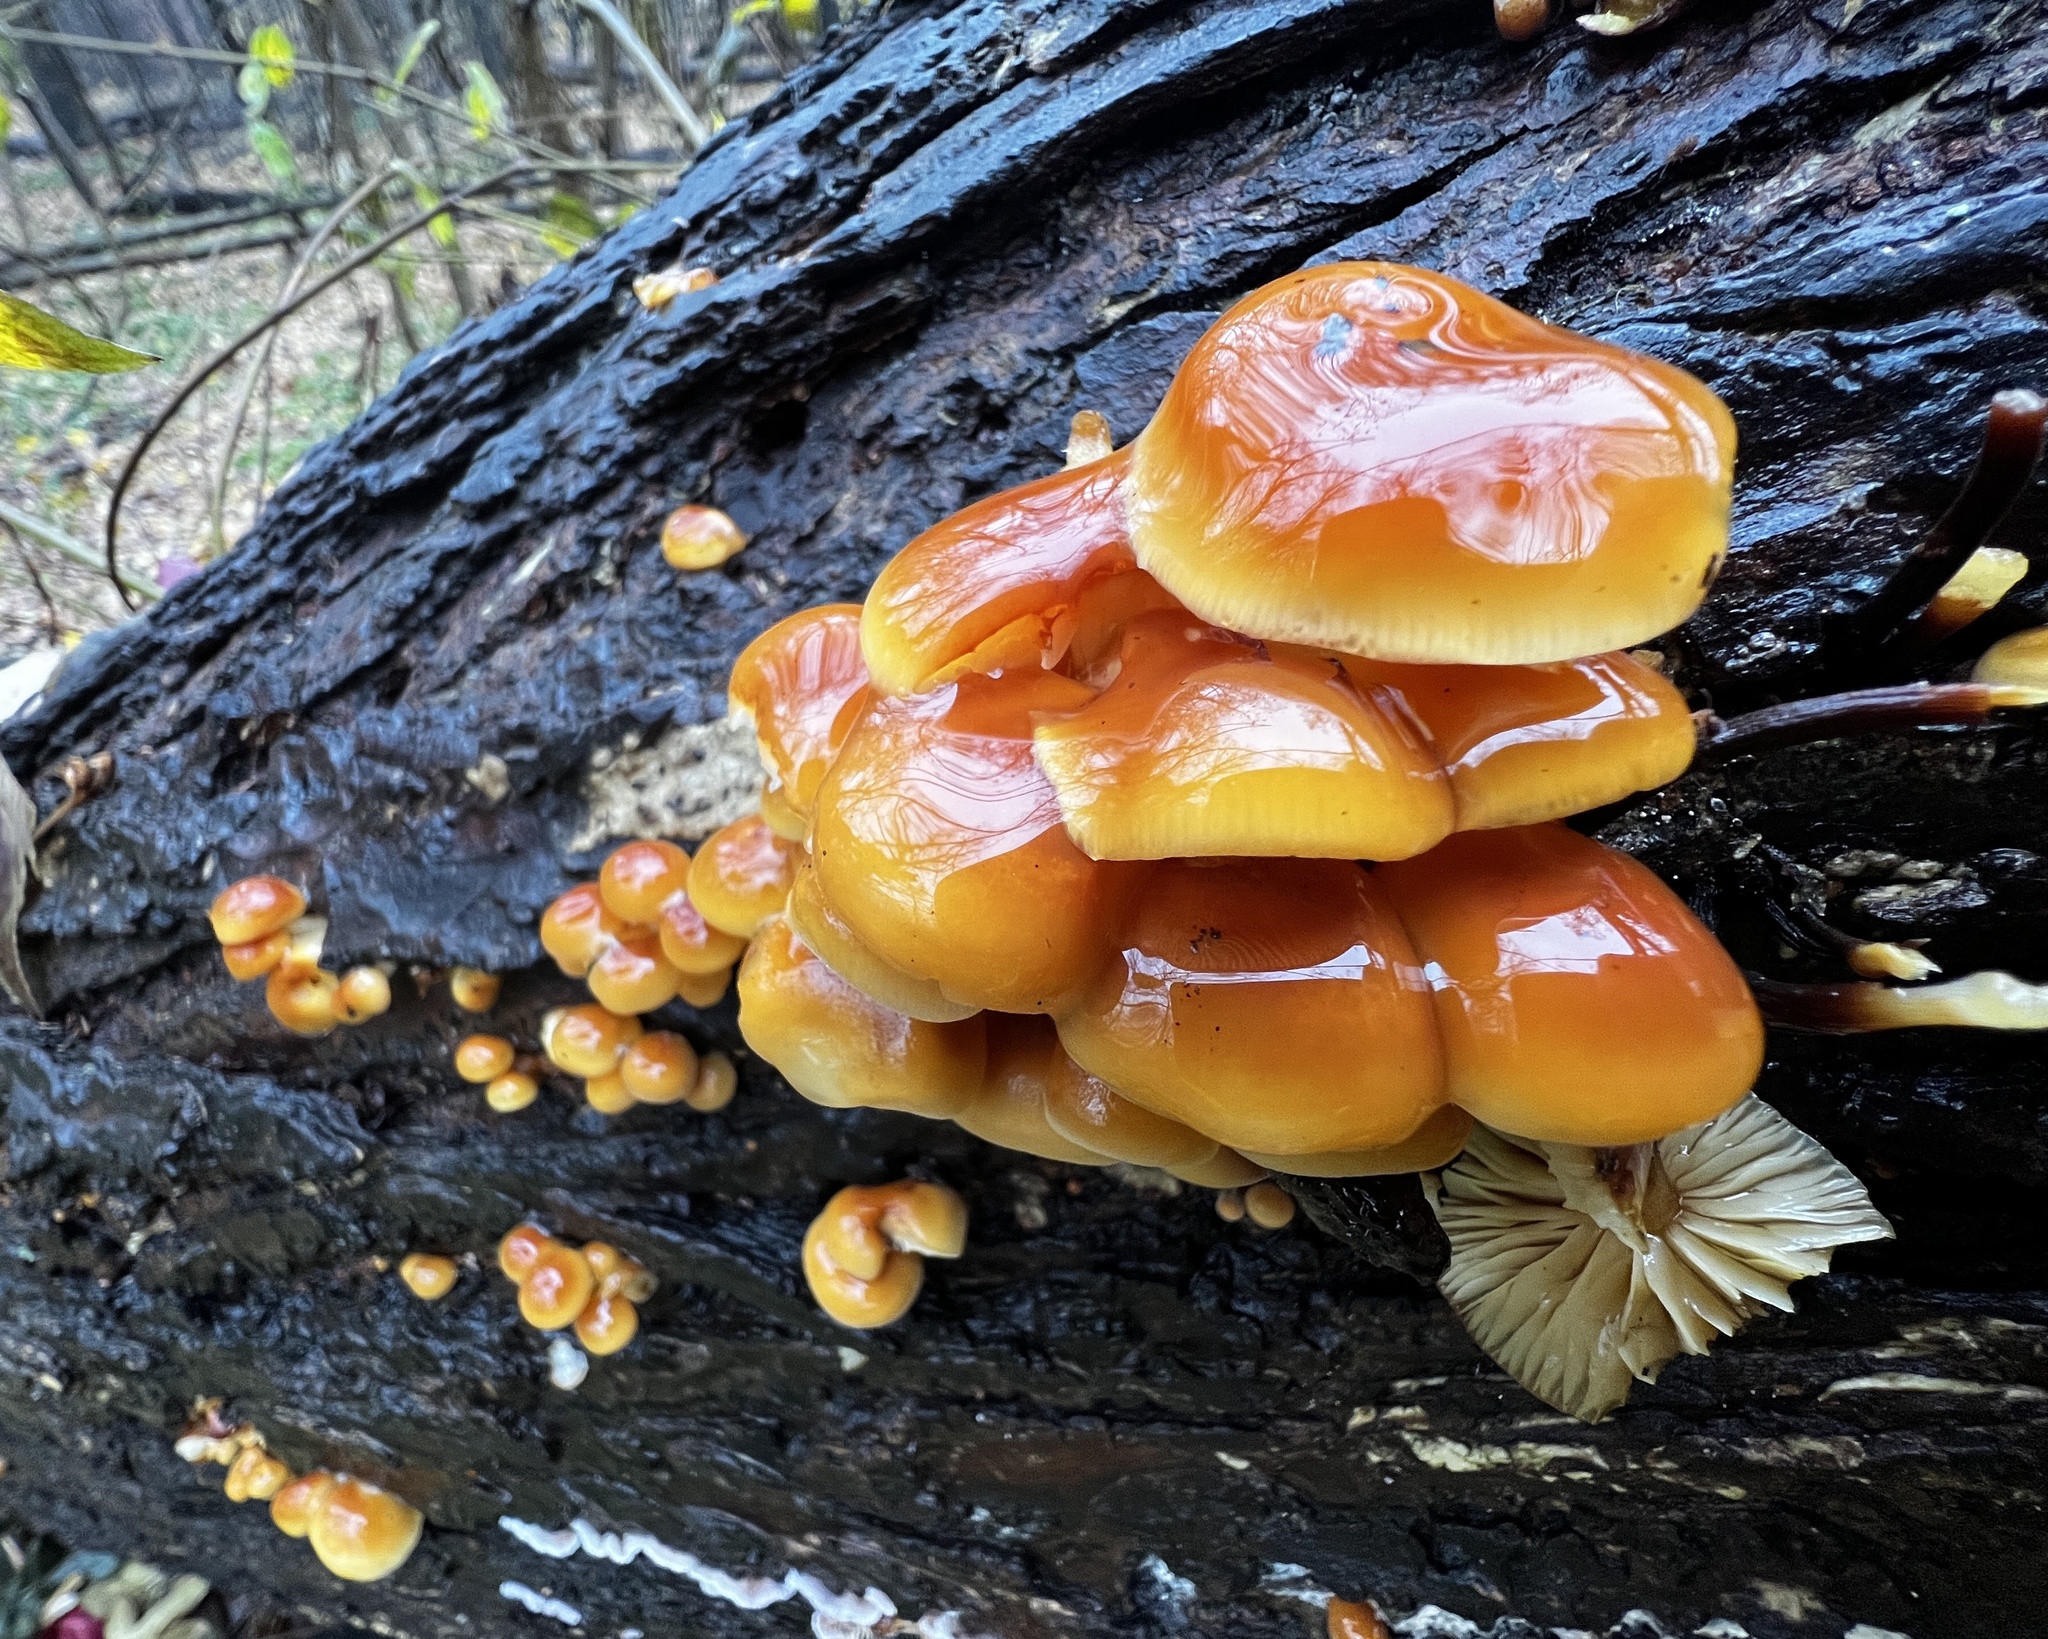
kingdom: Fungi
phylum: Basidiomycota
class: Agaricomycetes
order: Agaricales
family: Physalacriaceae
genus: Flammulina
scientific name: Flammulina velutipes
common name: Velvet shank
